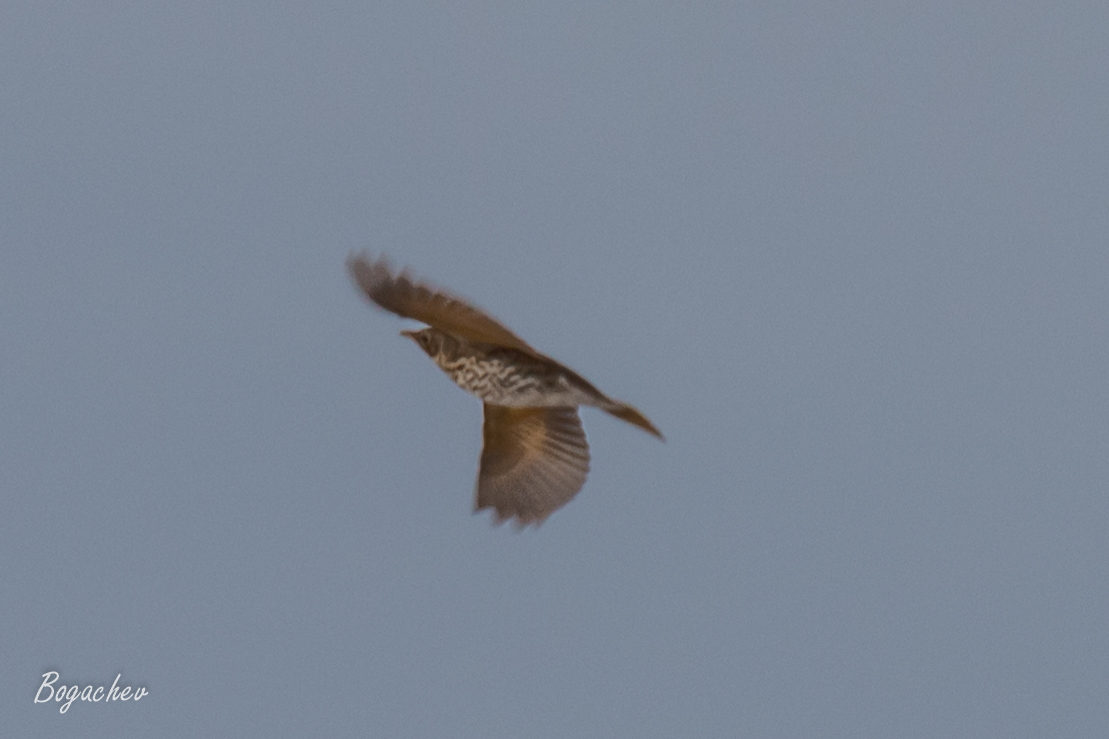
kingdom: Animalia
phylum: Chordata
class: Aves
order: Passeriformes
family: Turdidae
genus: Turdus
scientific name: Turdus philomelos
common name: Song thrush
